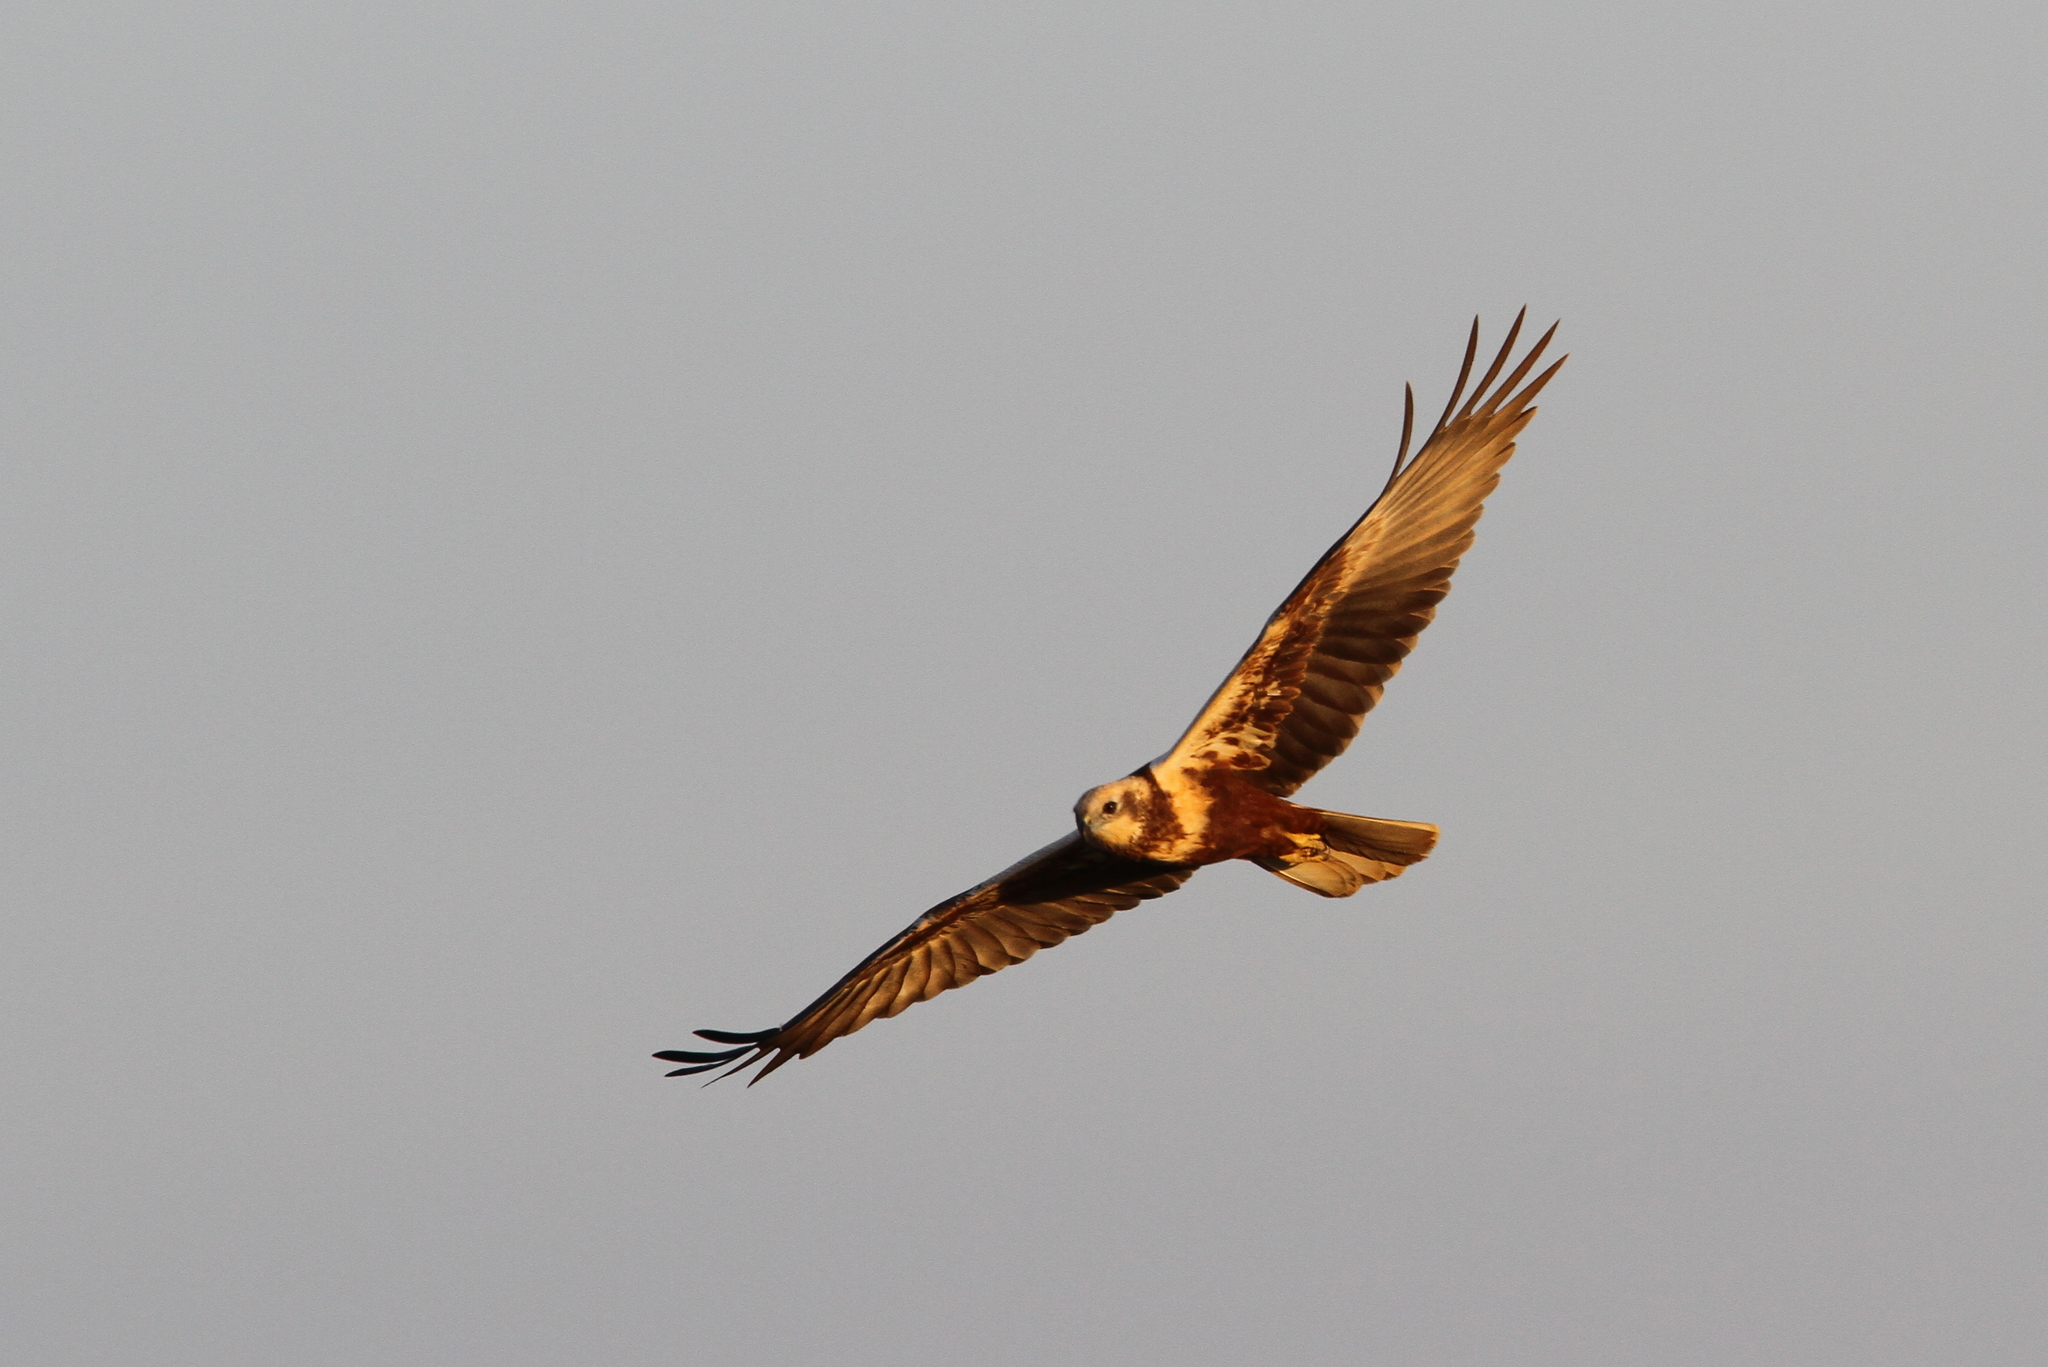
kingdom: Animalia
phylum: Chordata
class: Aves
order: Accipitriformes
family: Accipitridae
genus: Circus
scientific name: Circus aeruginosus
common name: Western marsh harrier
